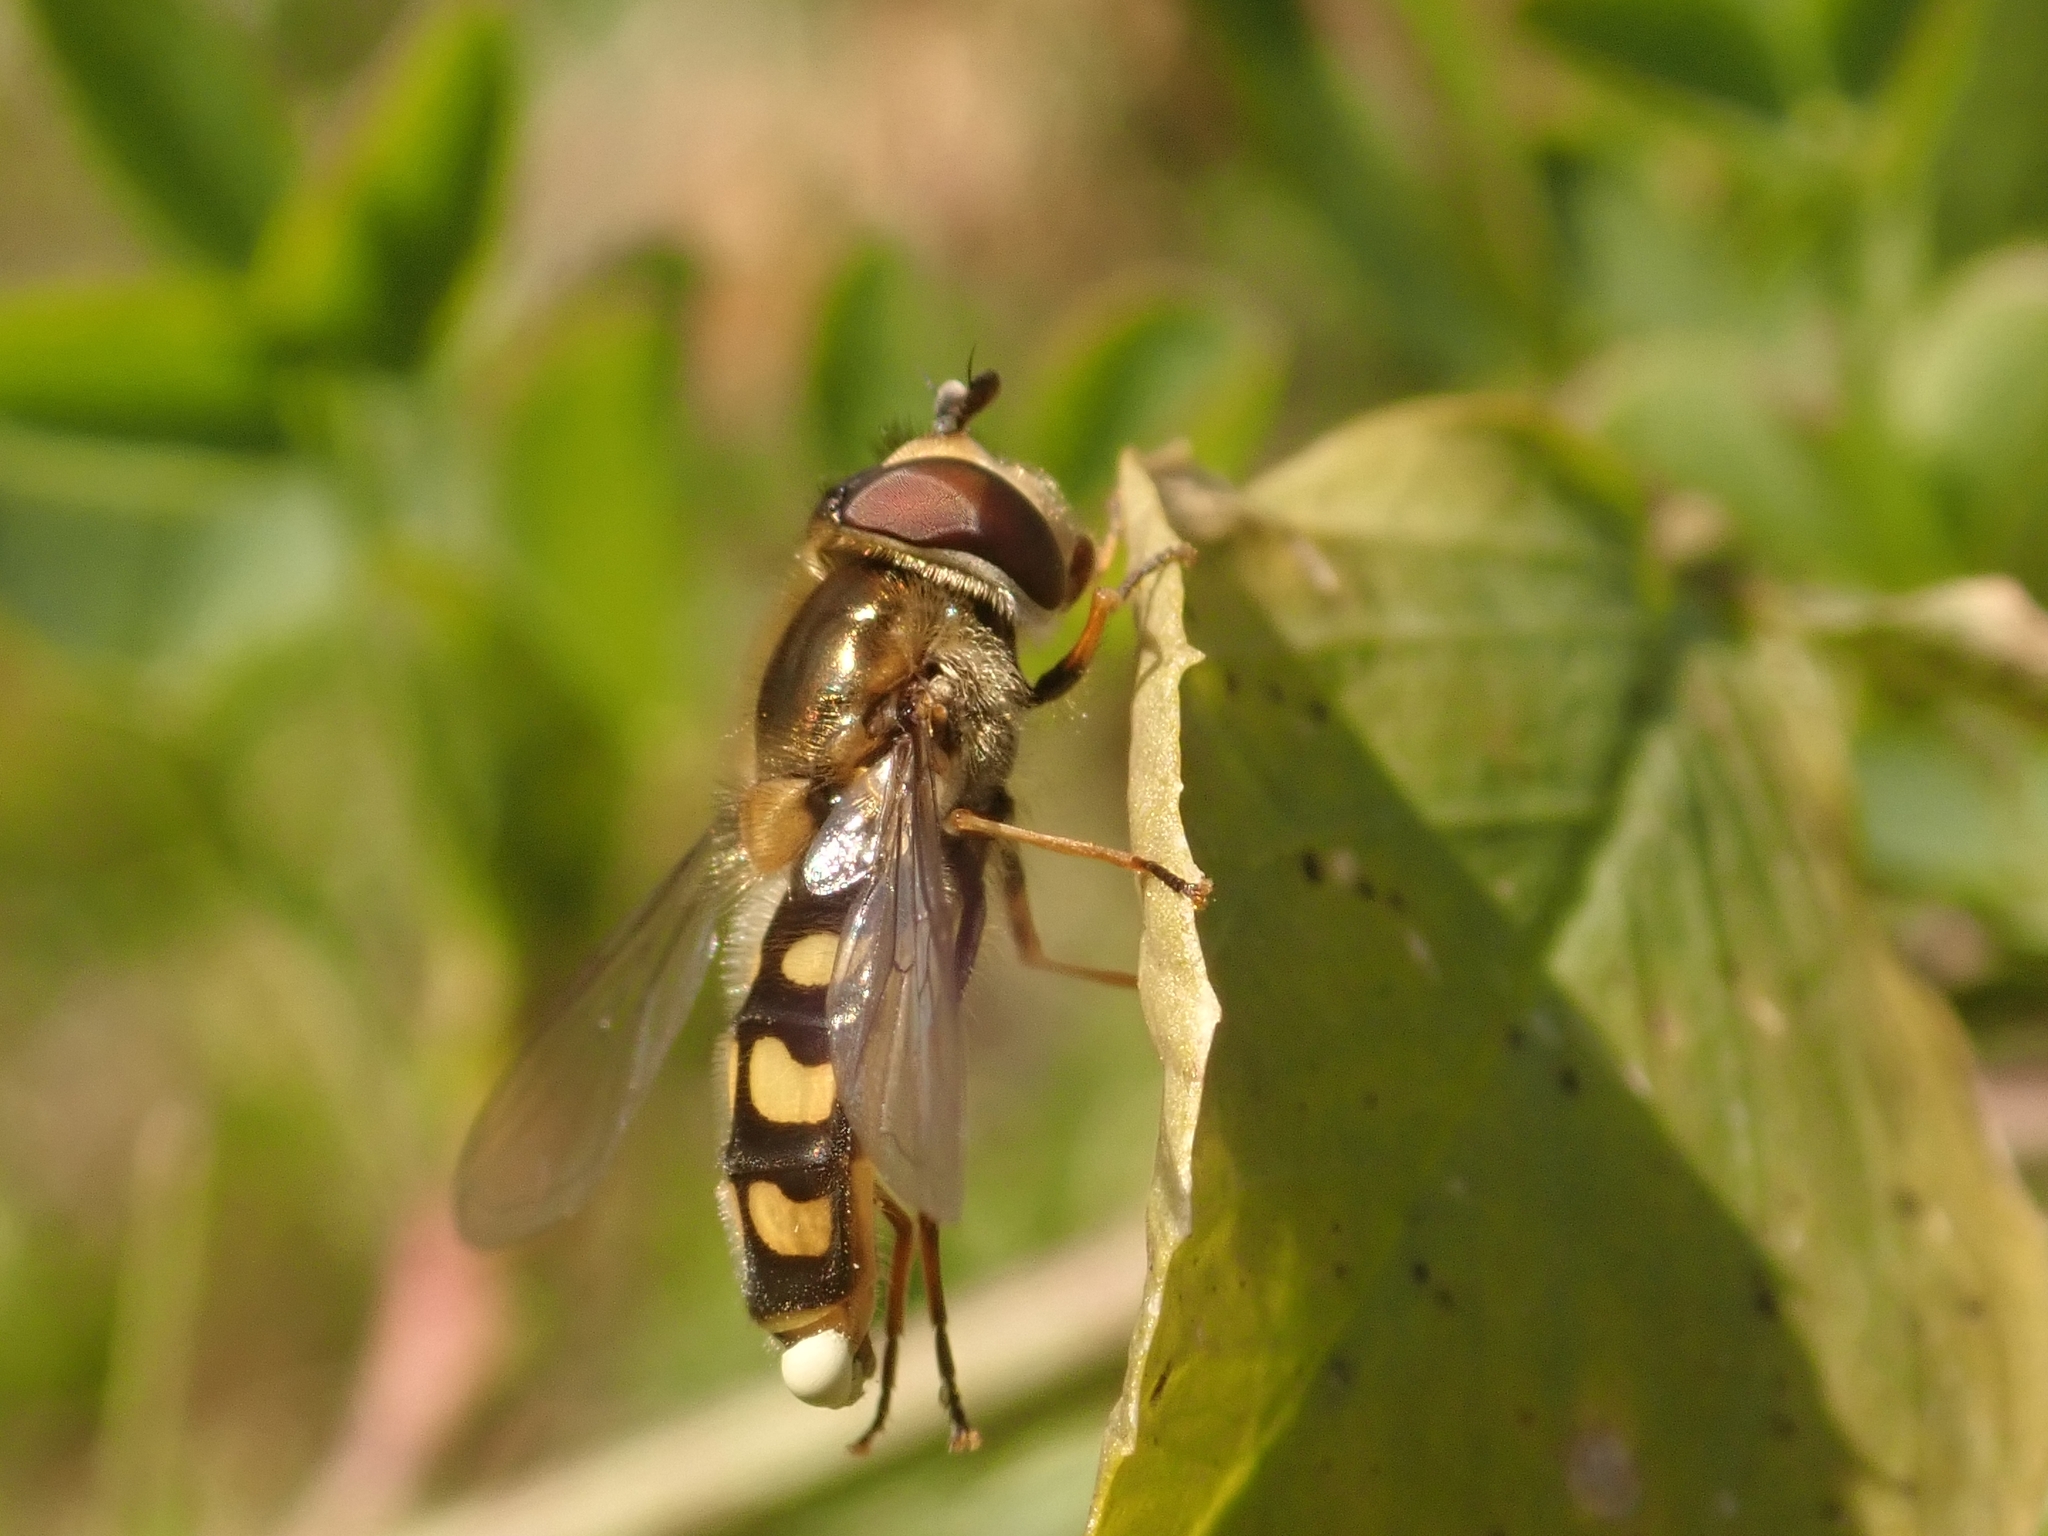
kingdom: Animalia
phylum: Arthropoda
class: Insecta
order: Diptera
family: Syrphidae
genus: Eupeodes
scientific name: Eupeodes luniger
